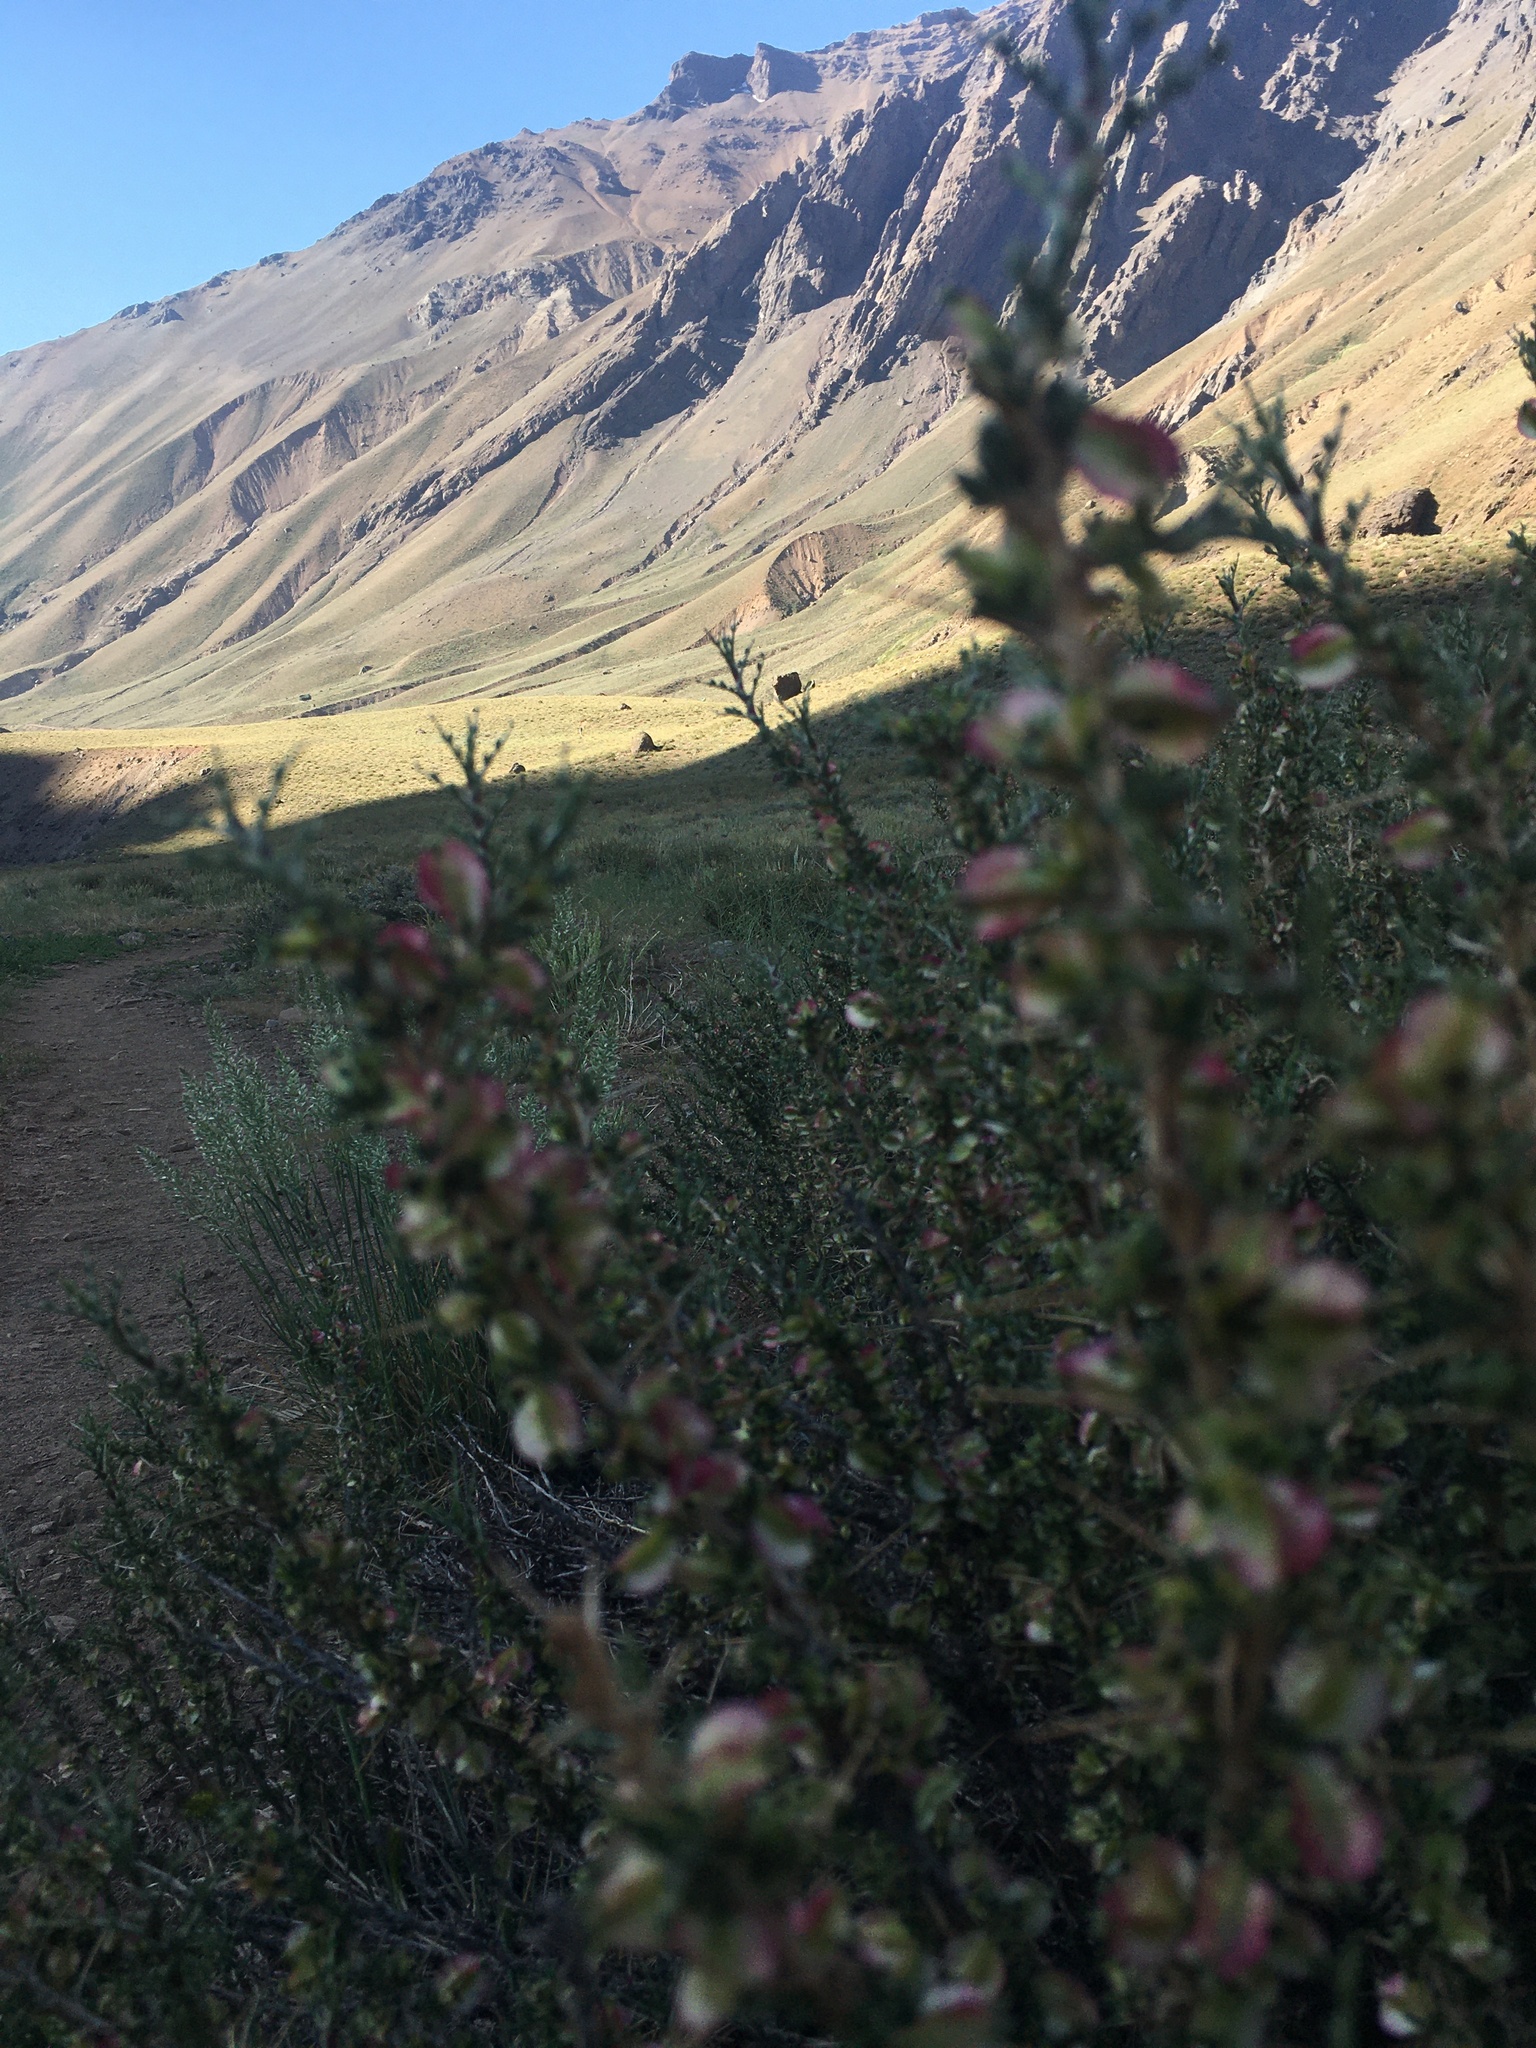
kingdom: Plantae
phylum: Tracheophyta
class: Magnoliopsida
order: Rosales
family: Rosaceae
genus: Margyricarpus
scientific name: Margyricarpus alatus
